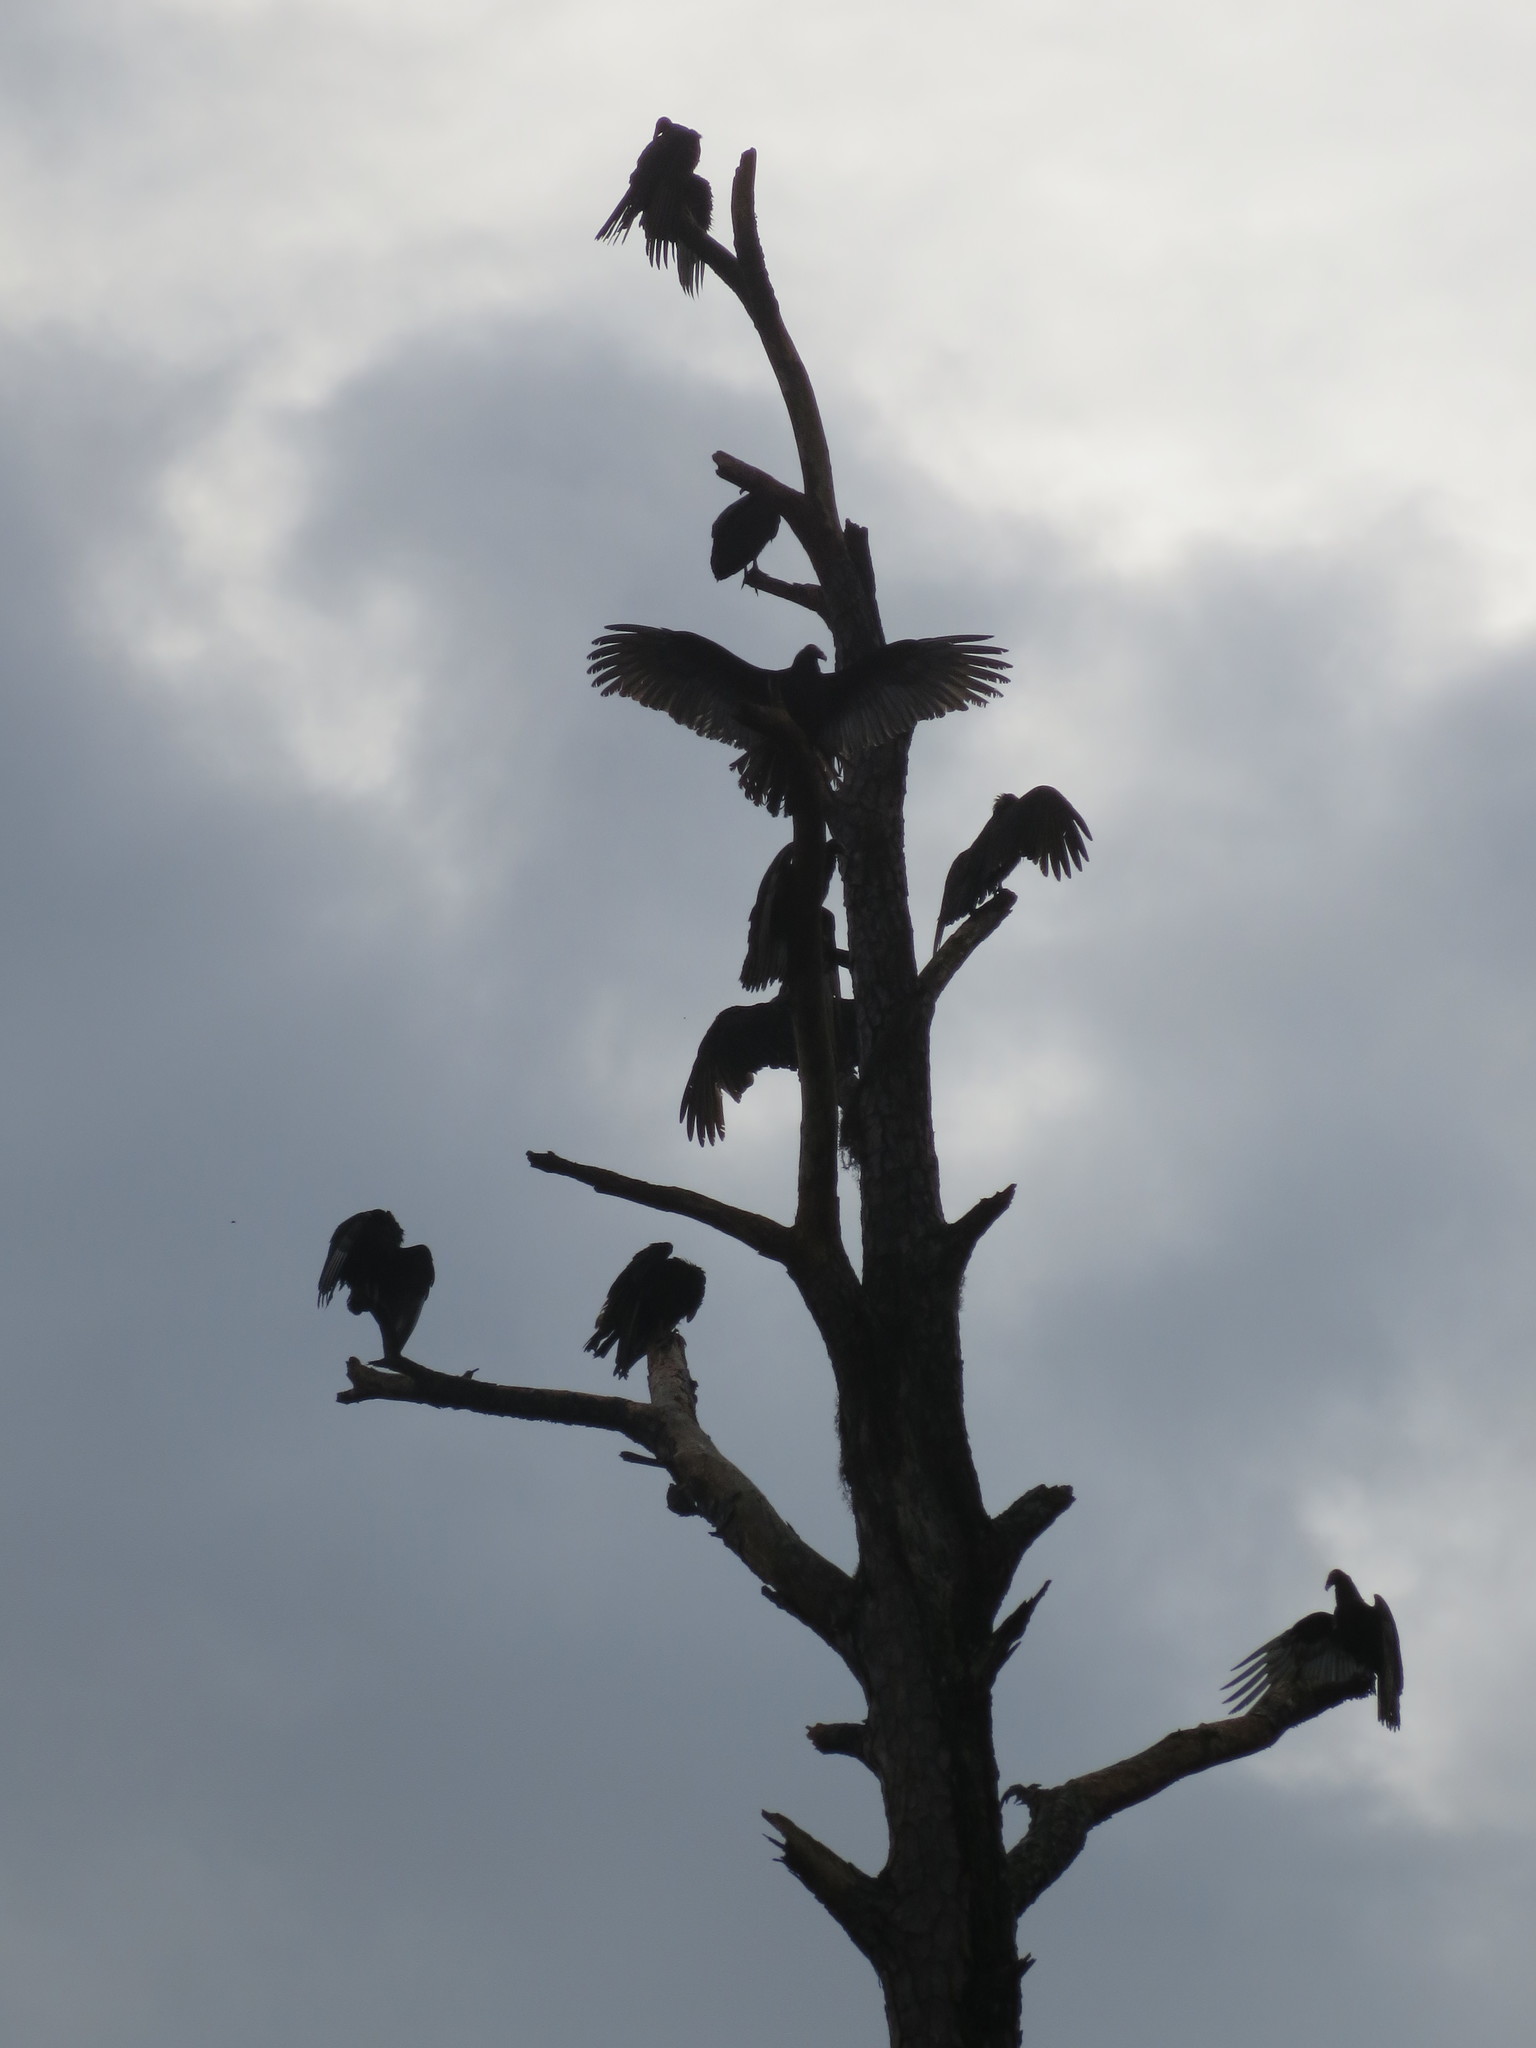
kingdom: Animalia
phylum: Chordata
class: Aves
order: Accipitriformes
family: Cathartidae
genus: Cathartes
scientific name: Cathartes aura
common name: Turkey vulture
